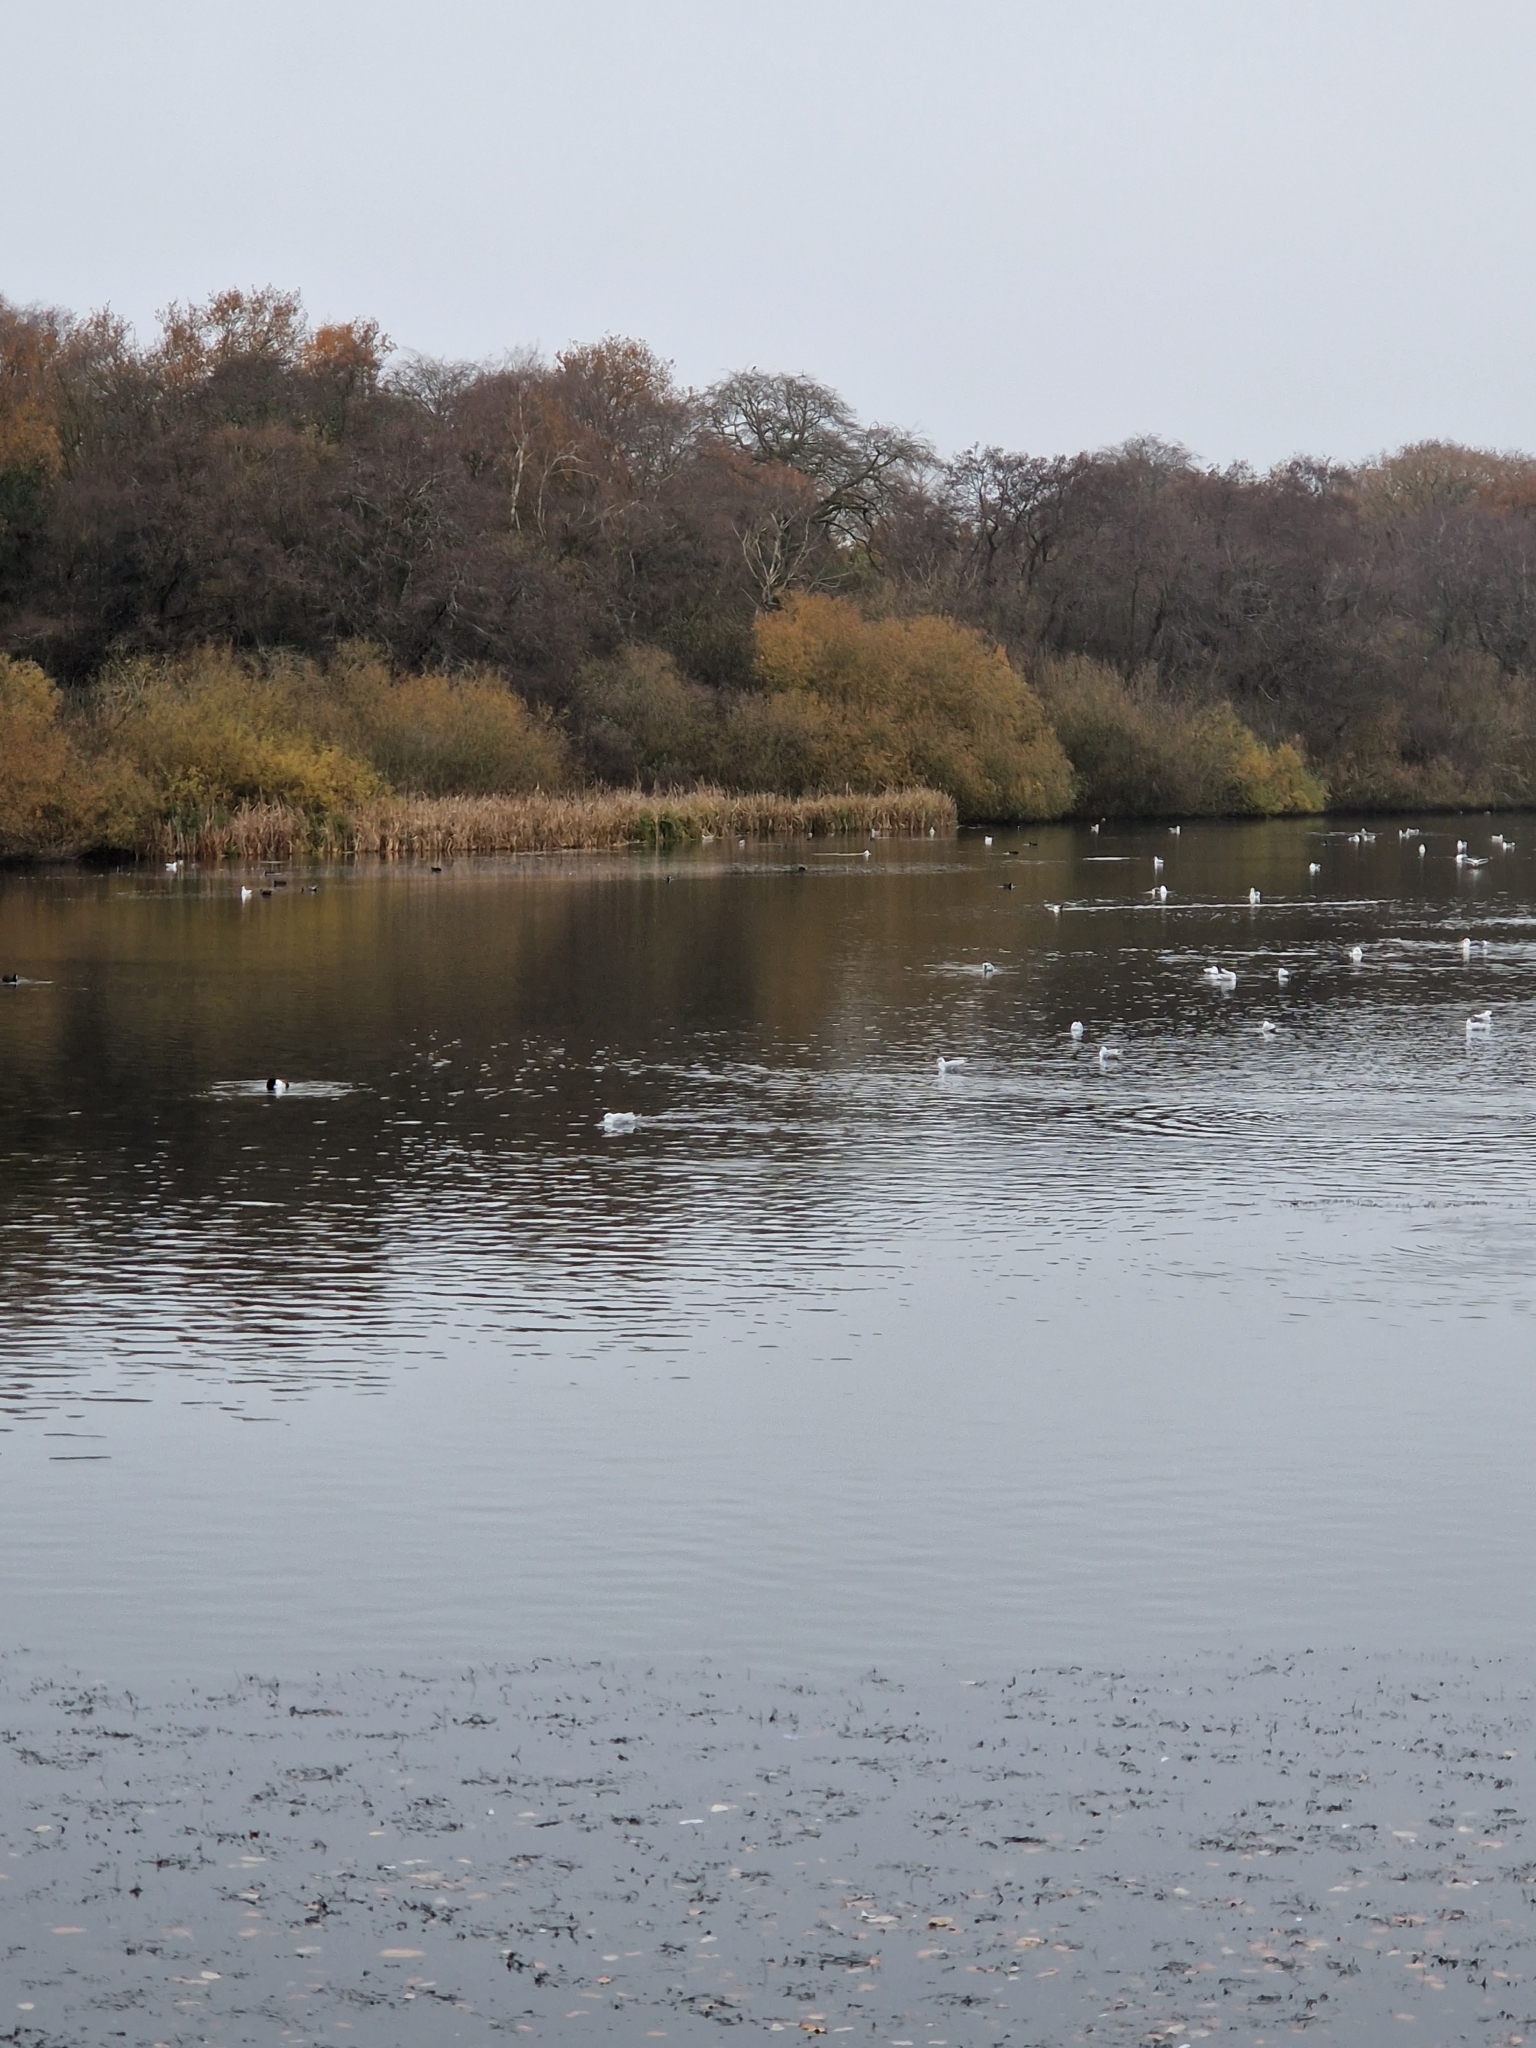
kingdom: Animalia
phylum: Chordata
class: Aves
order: Charadriiformes
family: Laridae
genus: Chroicocephalus
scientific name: Chroicocephalus ridibundus
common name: Black-headed gull
